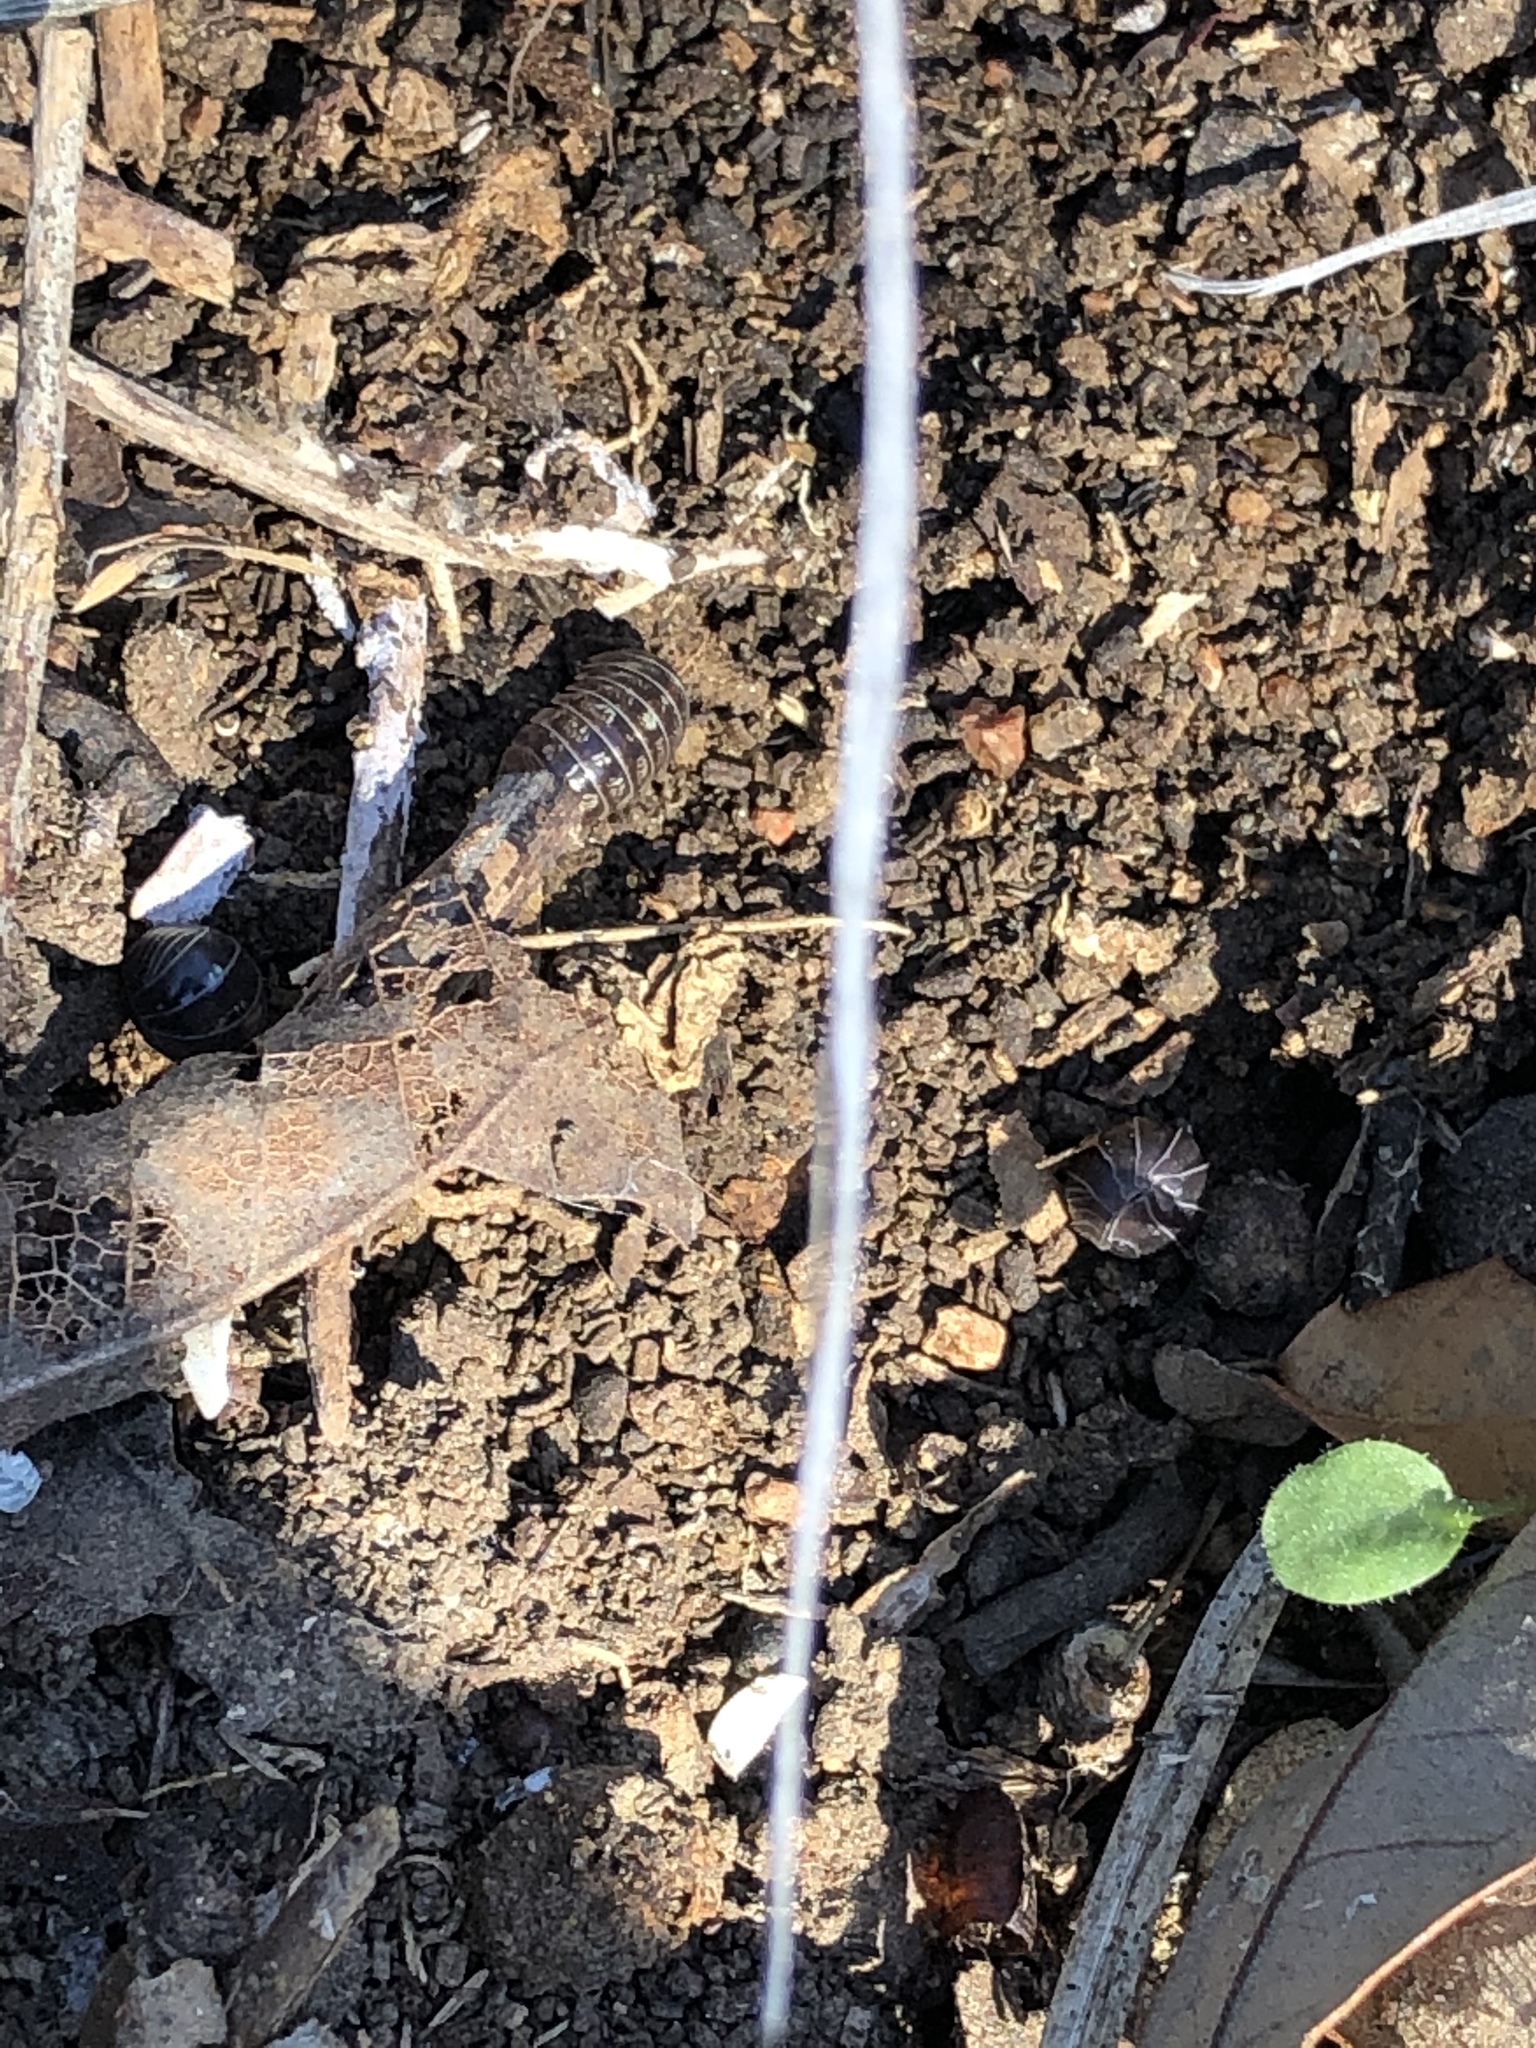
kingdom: Animalia
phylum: Arthropoda
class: Malacostraca
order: Isopoda
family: Armadillidiidae
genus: Armadillidium
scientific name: Armadillidium vulgare
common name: Common pill woodlouse
